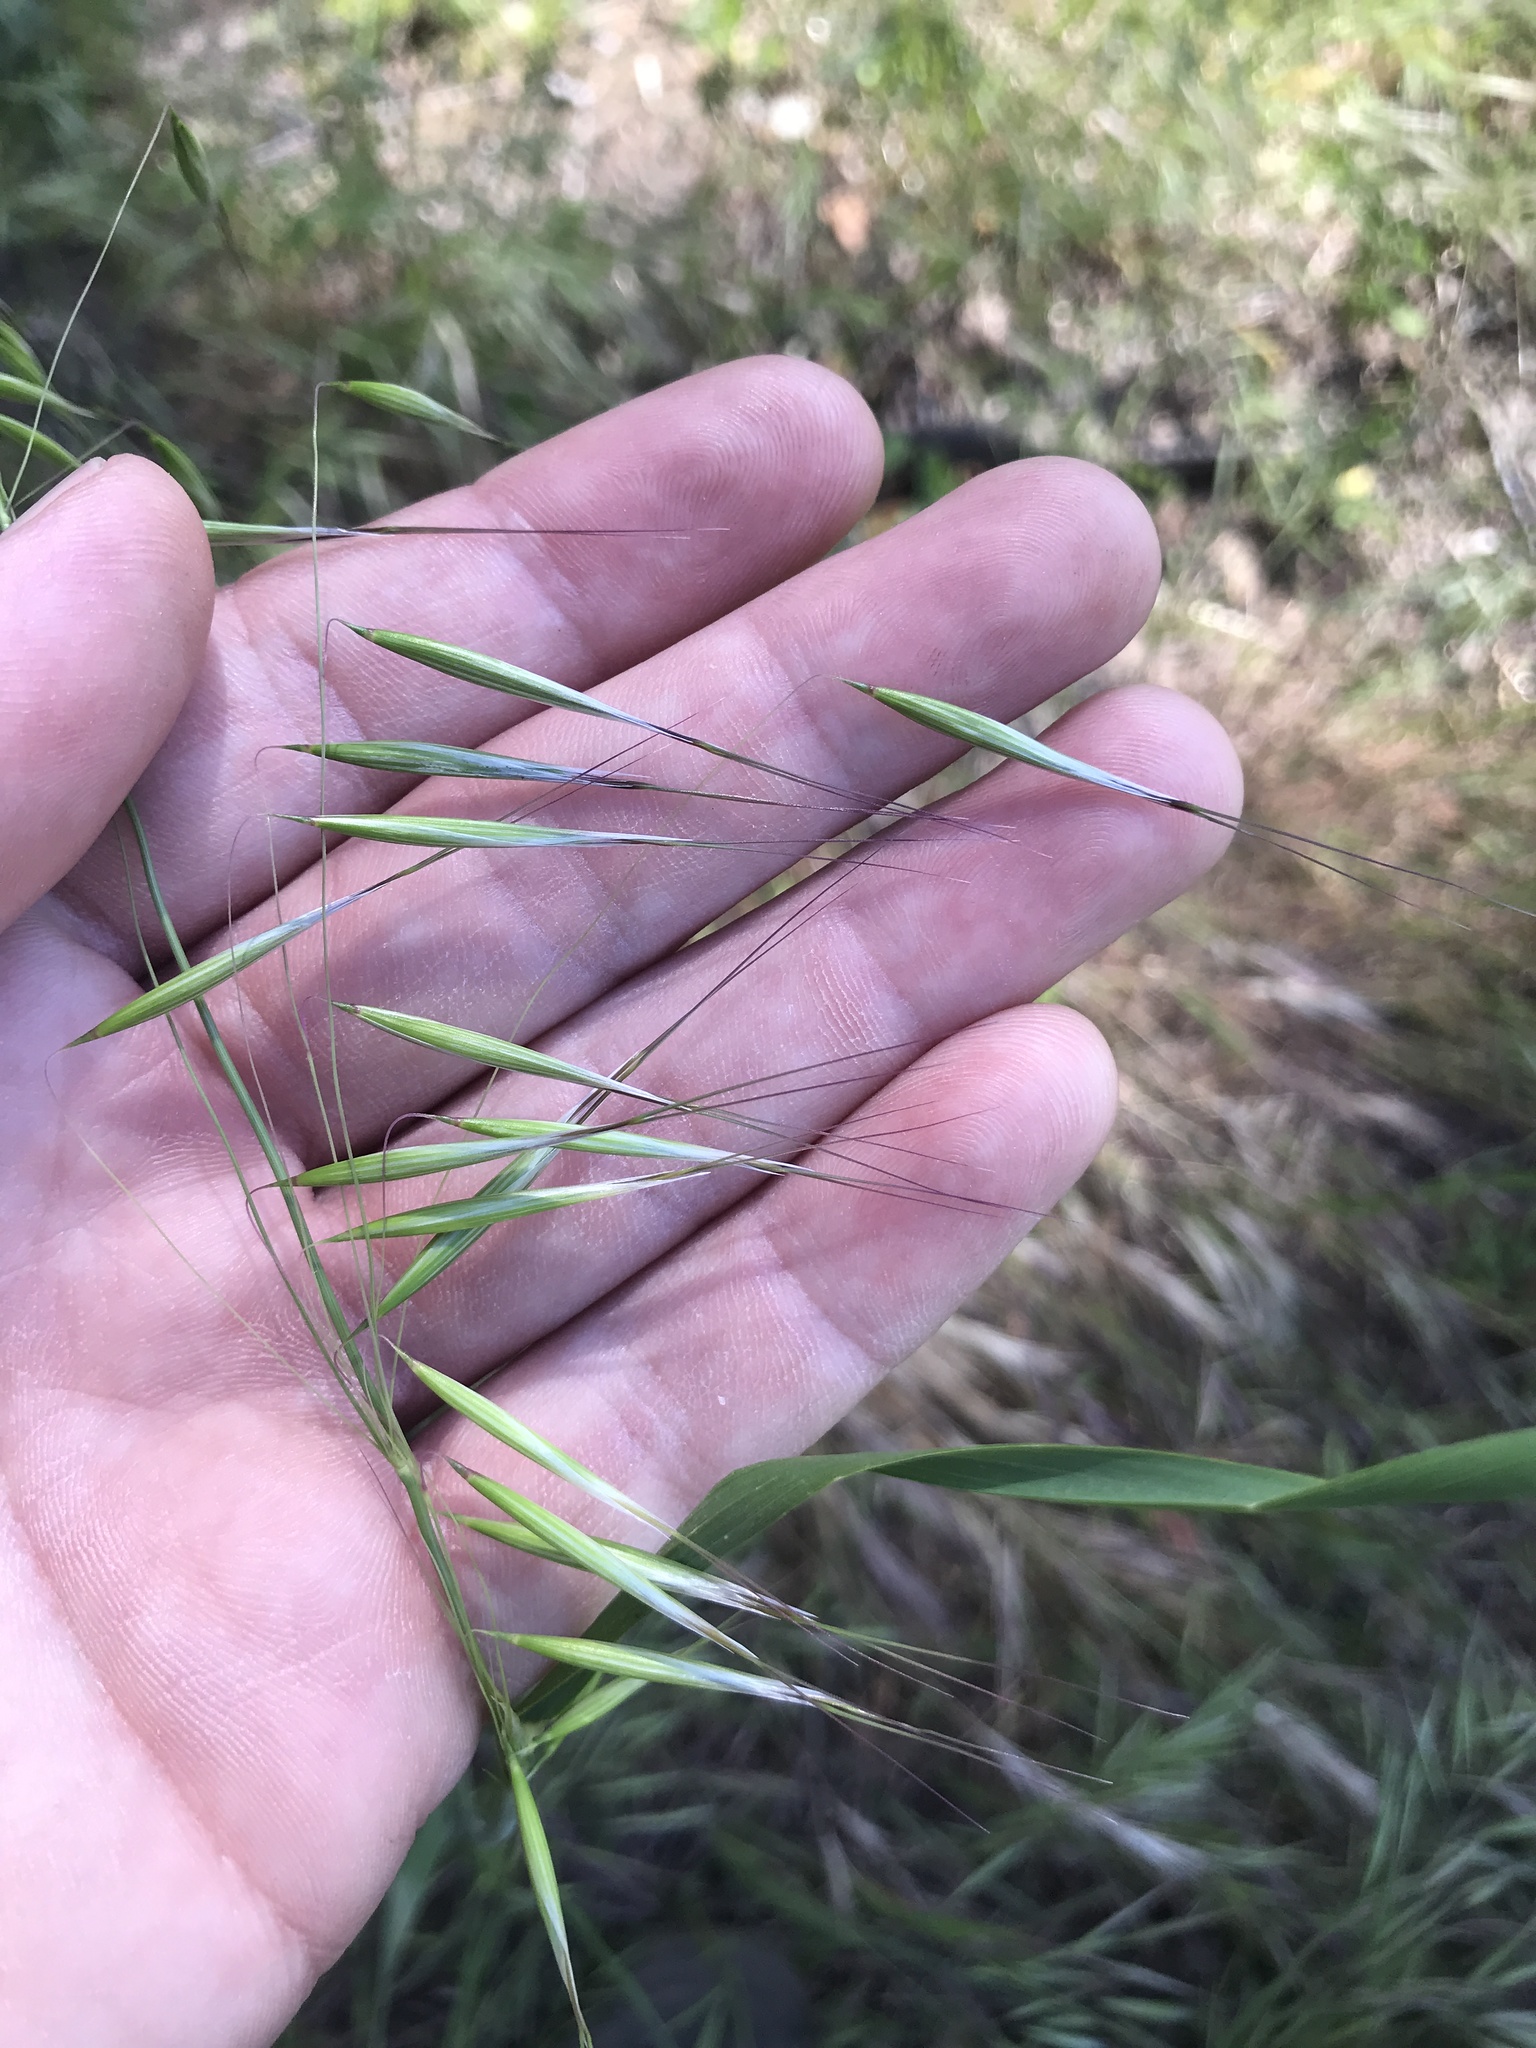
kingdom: Plantae
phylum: Tracheophyta
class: Liliopsida
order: Poales
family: Poaceae
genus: Avena
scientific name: Avena barbata
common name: Slender oat
